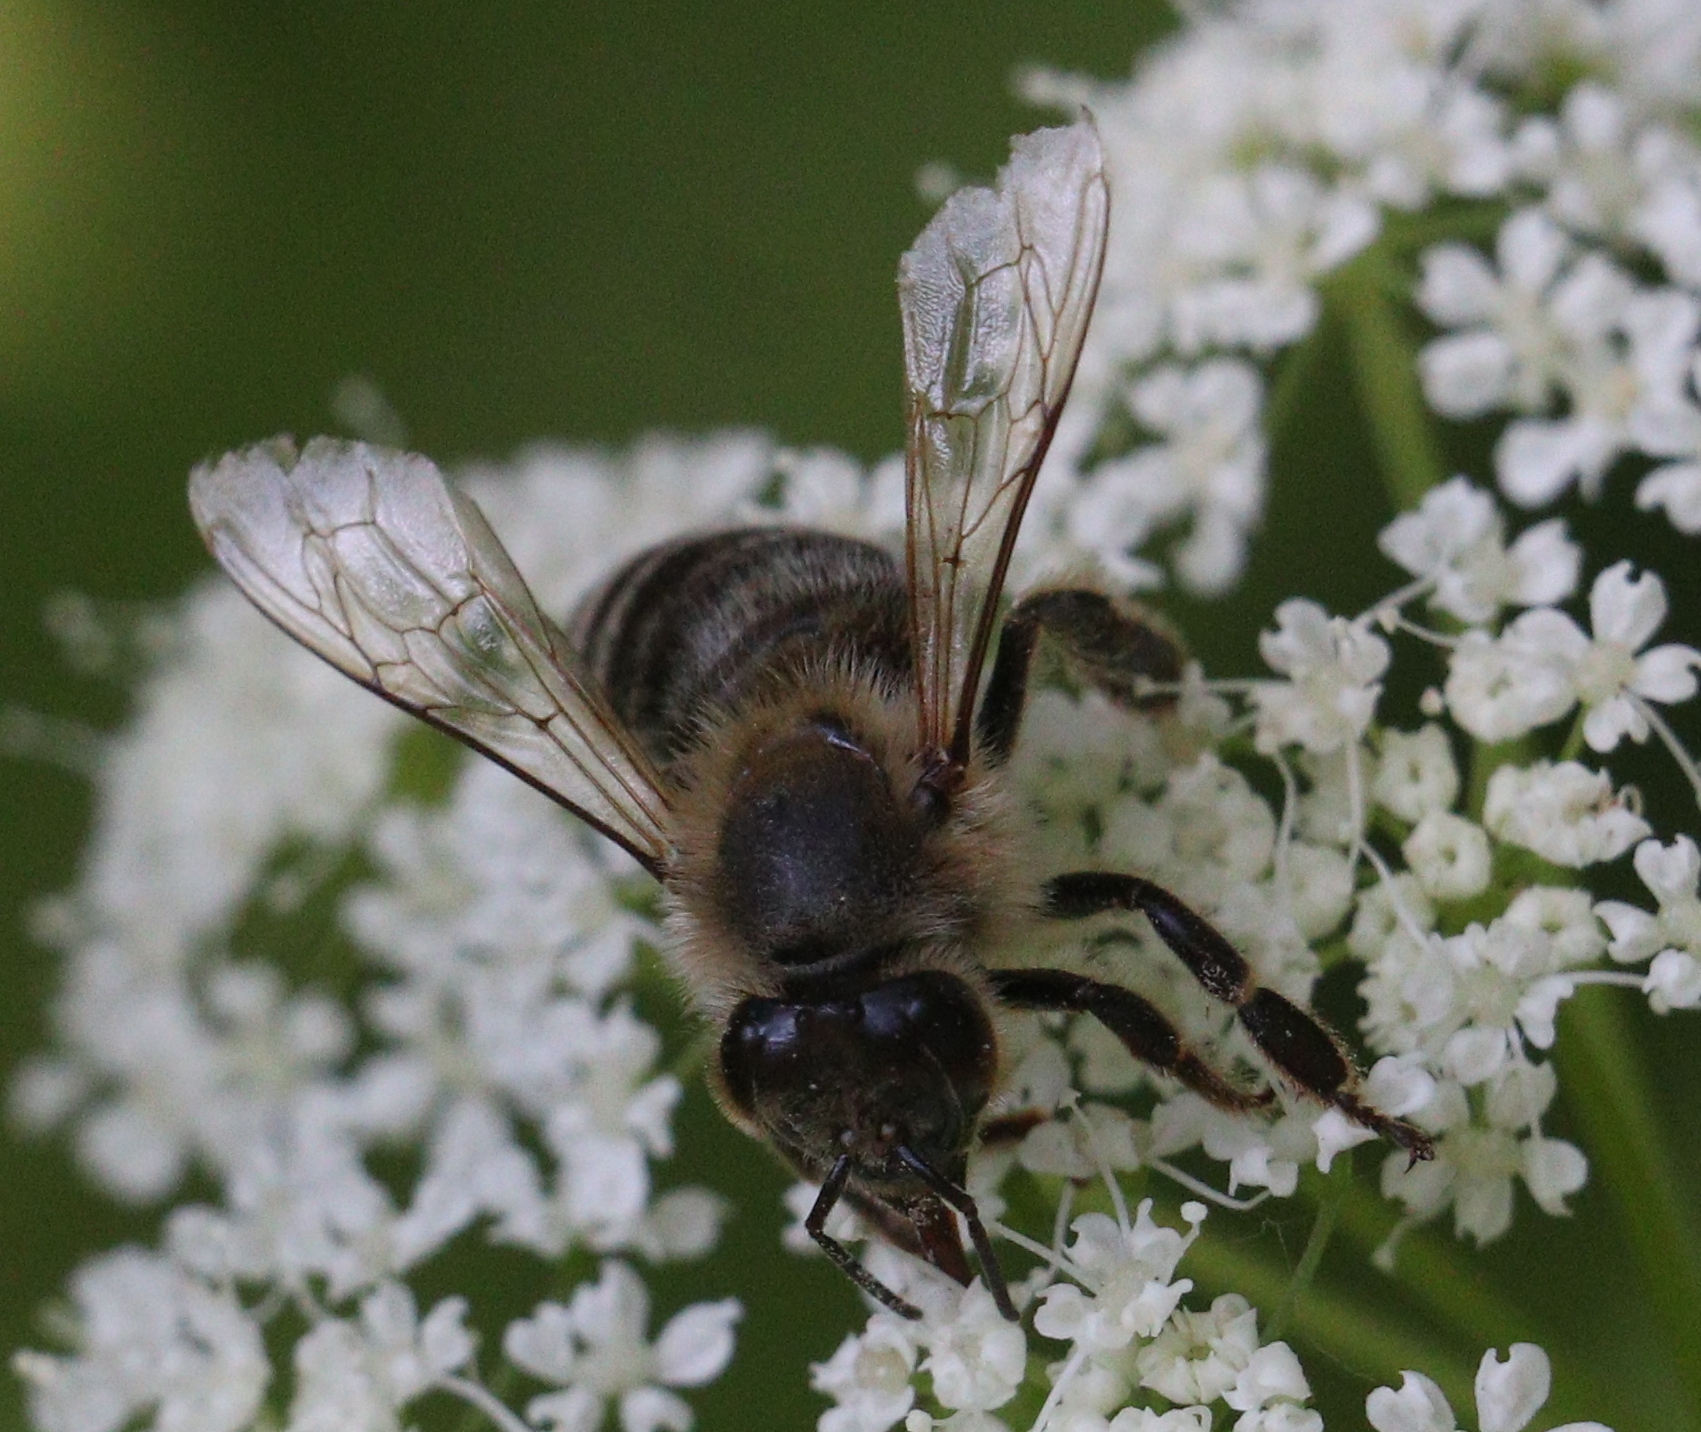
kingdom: Animalia
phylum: Arthropoda
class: Insecta
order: Hymenoptera
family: Apidae
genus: Apis
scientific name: Apis mellifera
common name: Honey bee
